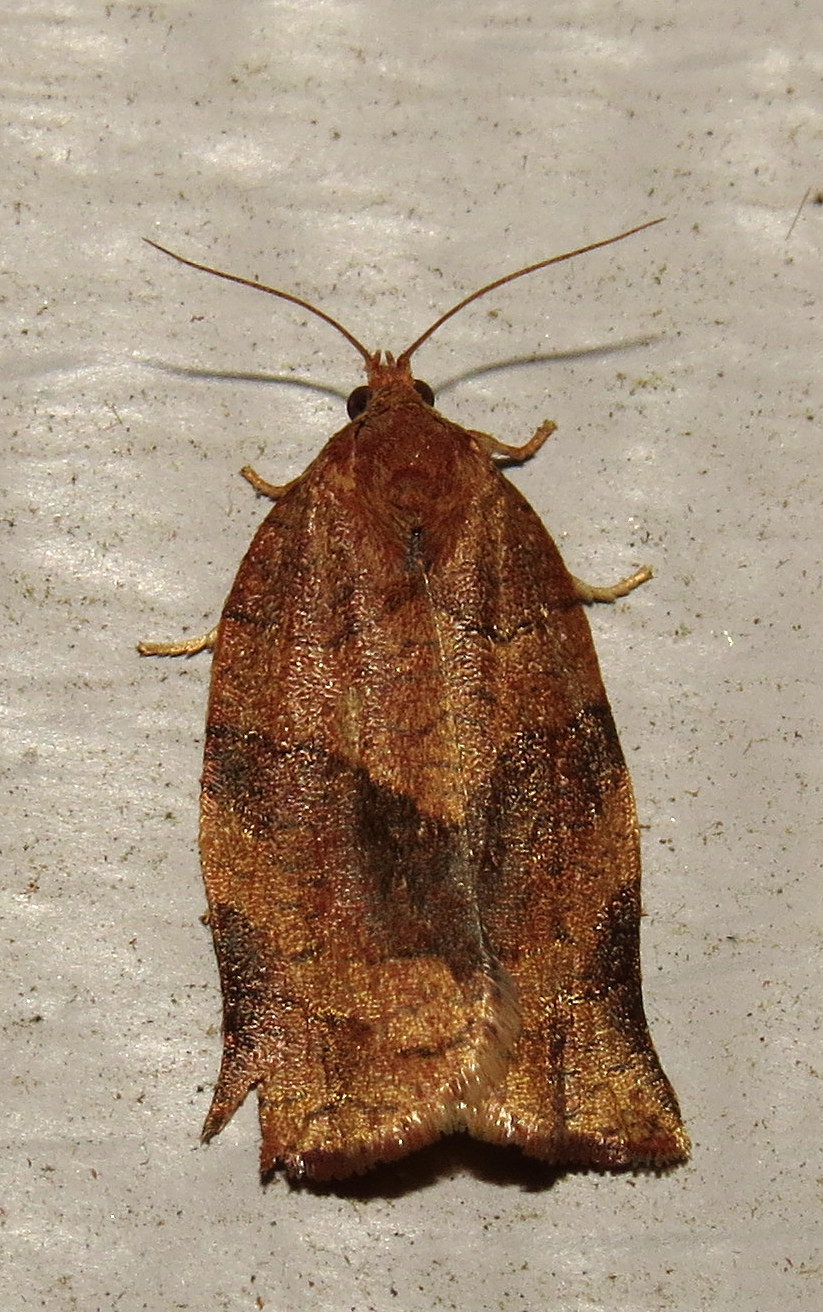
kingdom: Animalia
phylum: Arthropoda
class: Insecta
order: Lepidoptera
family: Tortricidae
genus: Choristoneura
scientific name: Choristoneura rosaceana
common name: Oblique-banded leafroller moth
